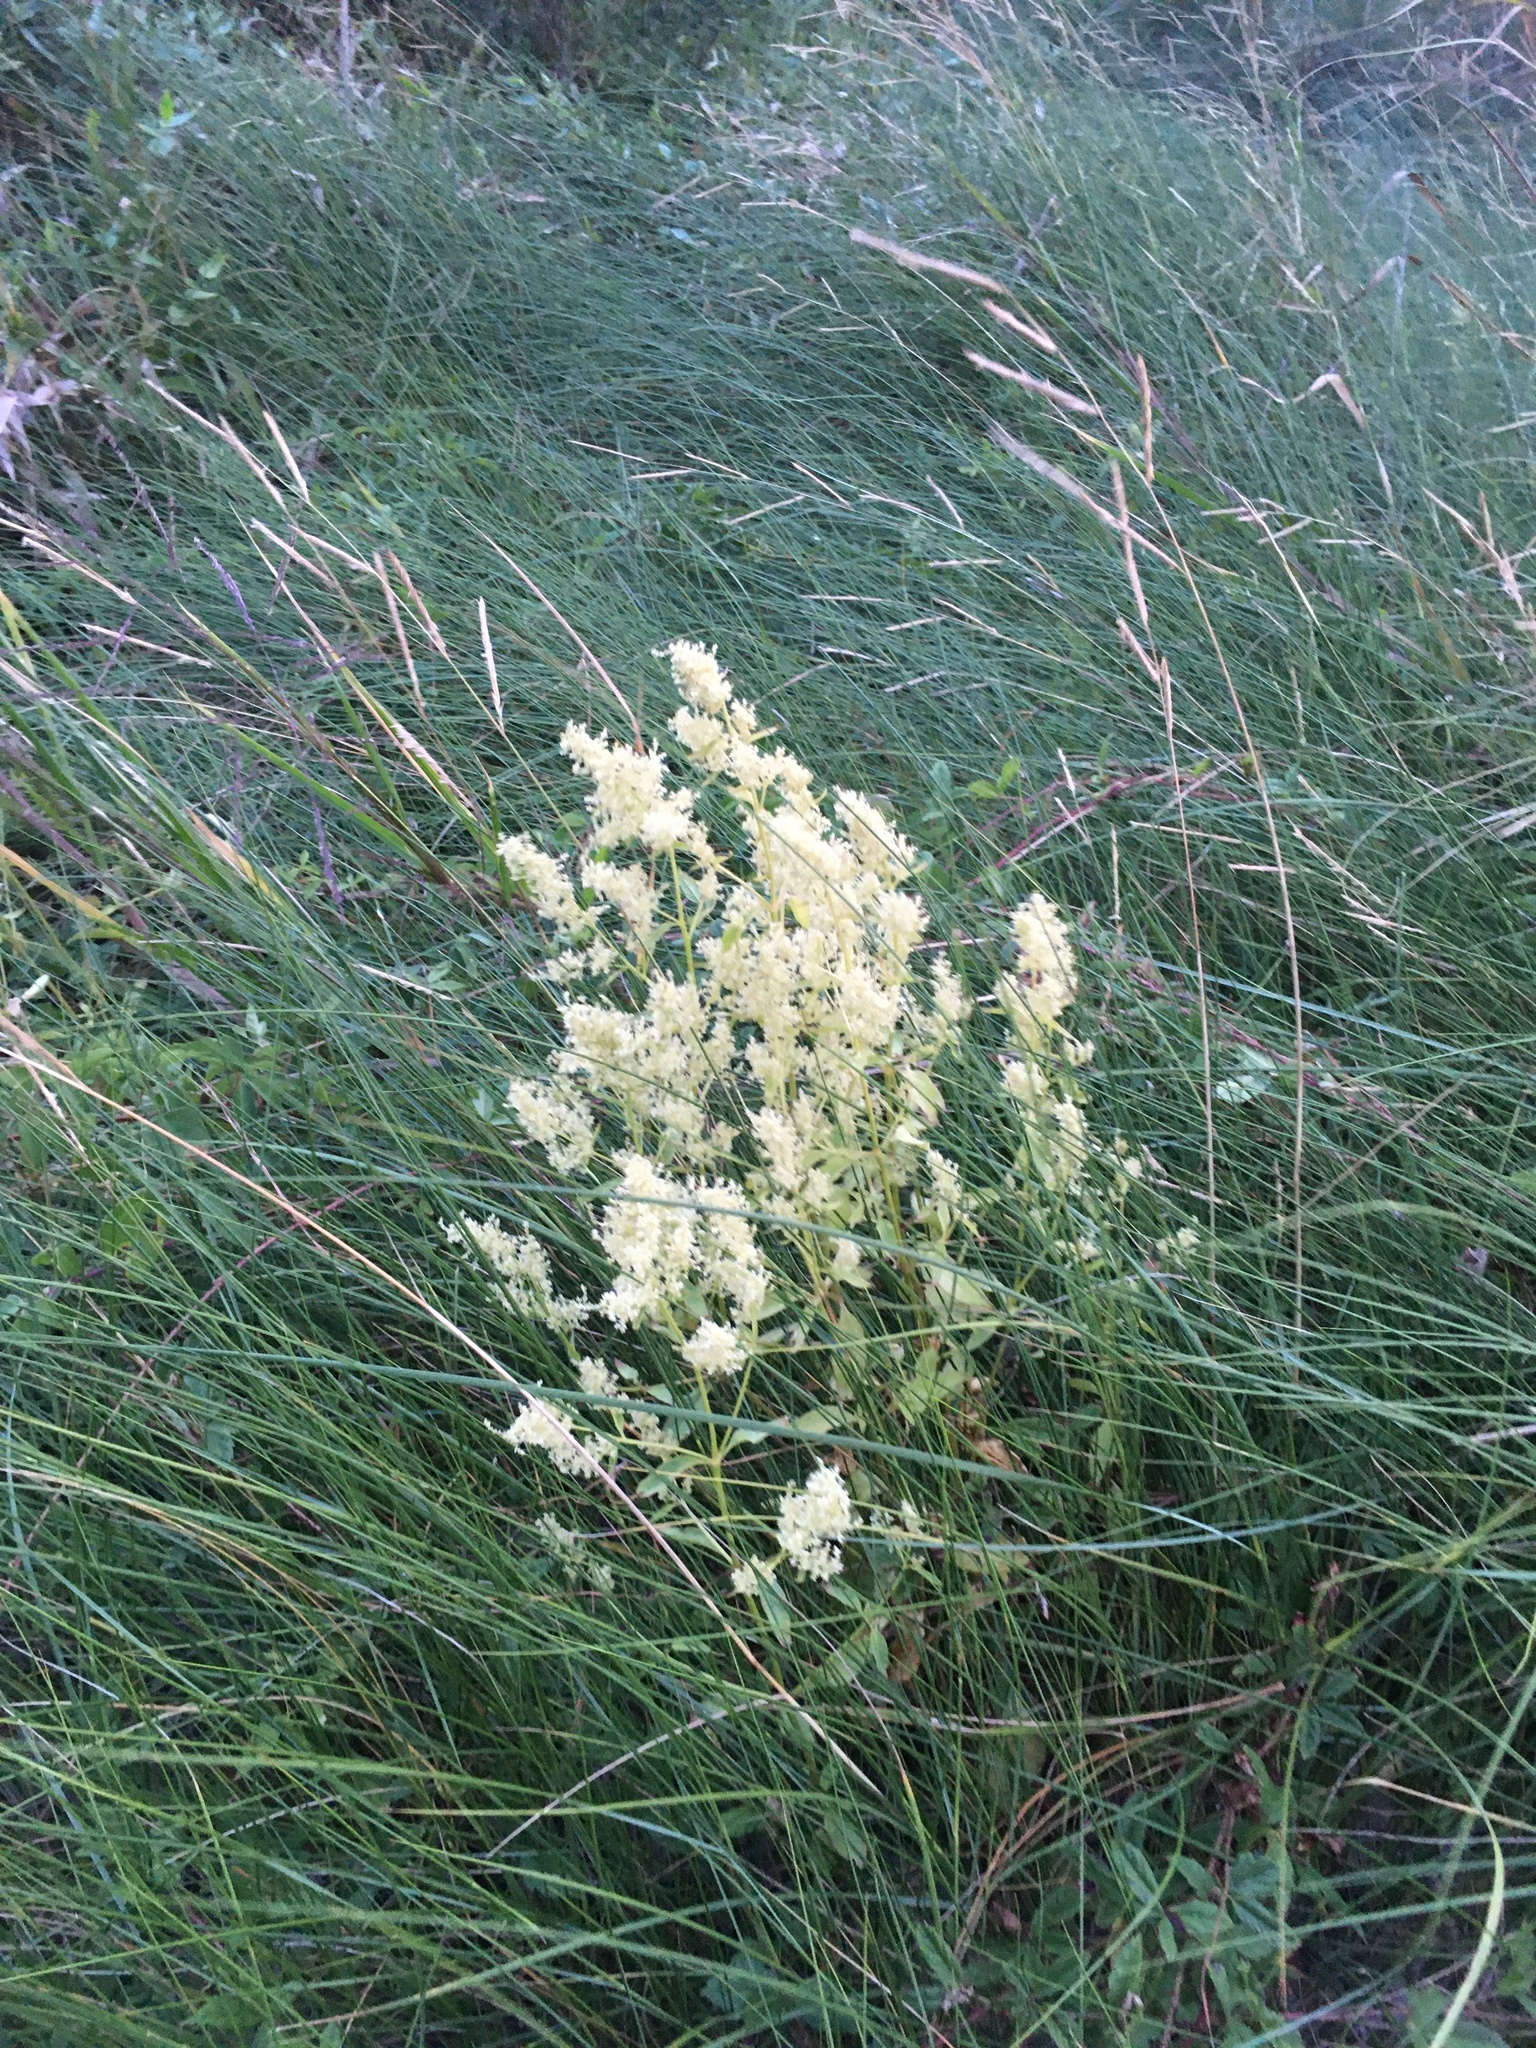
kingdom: Plantae
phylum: Tracheophyta
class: Magnoliopsida
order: Caryophyllales
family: Amaranthaceae
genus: Iresine
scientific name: Iresine rhizomatosa
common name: Juda's-bush
